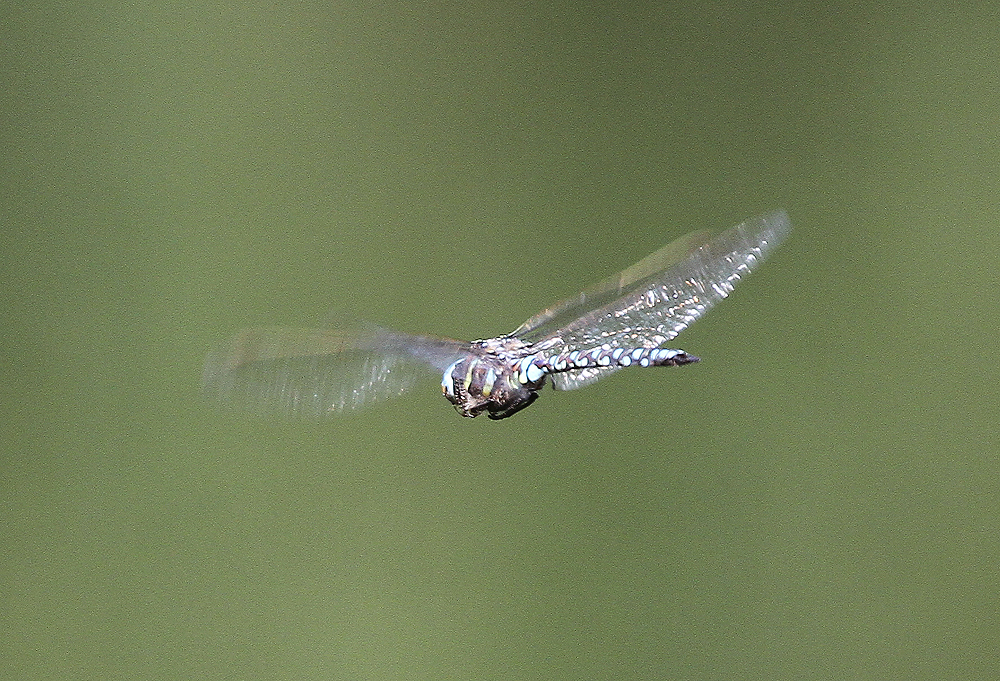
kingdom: Animalia
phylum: Arthropoda
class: Insecta
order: Odonata
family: Aeshnidae
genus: Aeshna
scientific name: Aeshna juncea
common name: Moorland hawker
